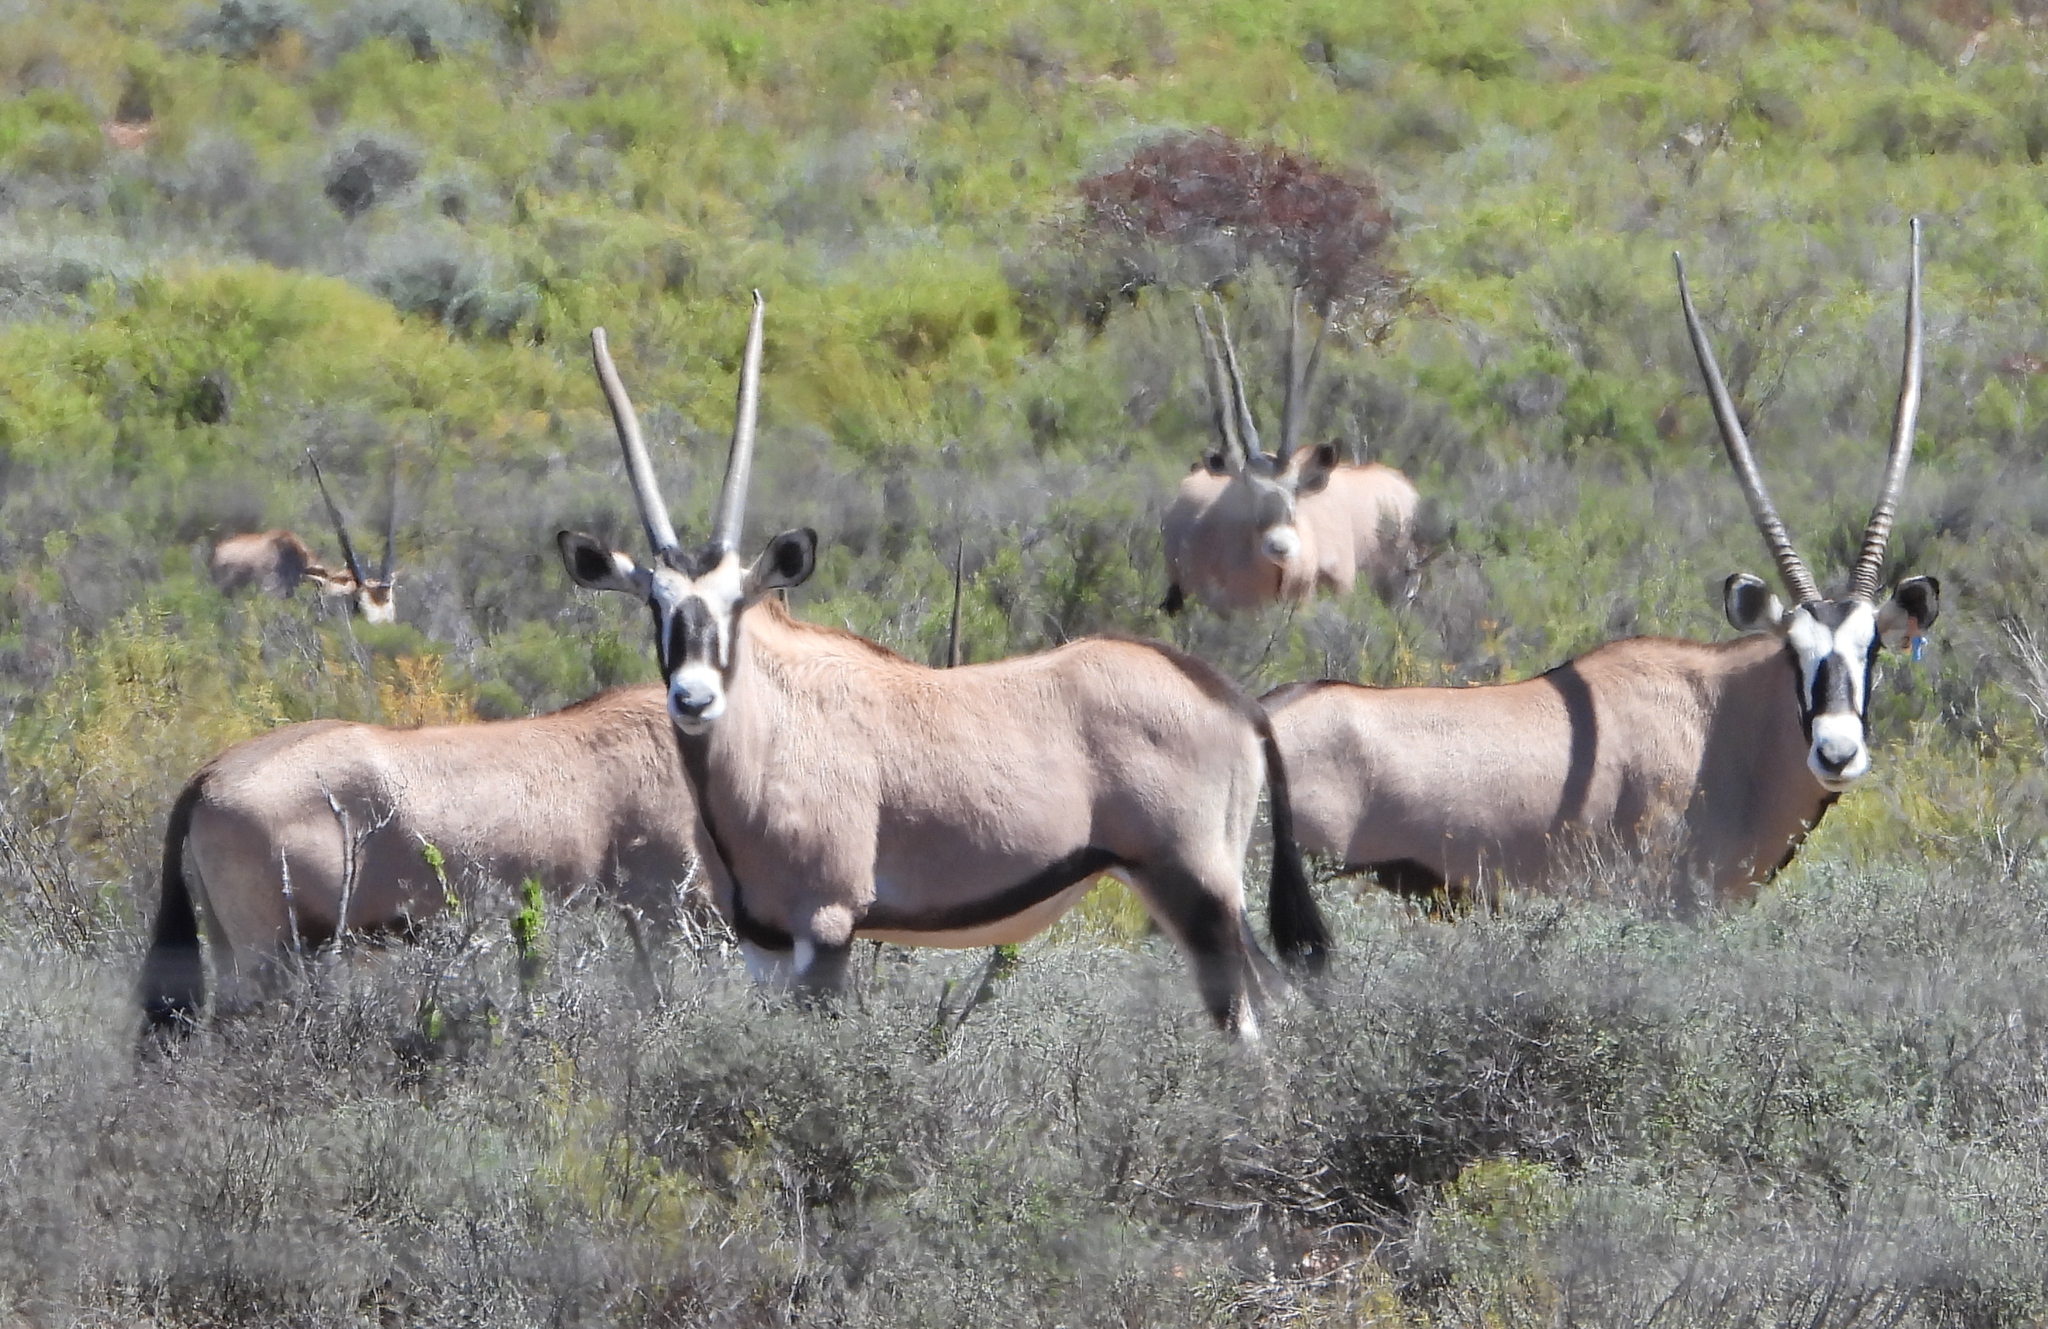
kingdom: Animalia
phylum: Chordata
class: Mammalia
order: Artiodactyla
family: Bovidae
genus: Oryx
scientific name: Oryx gazella
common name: Gemsbok
